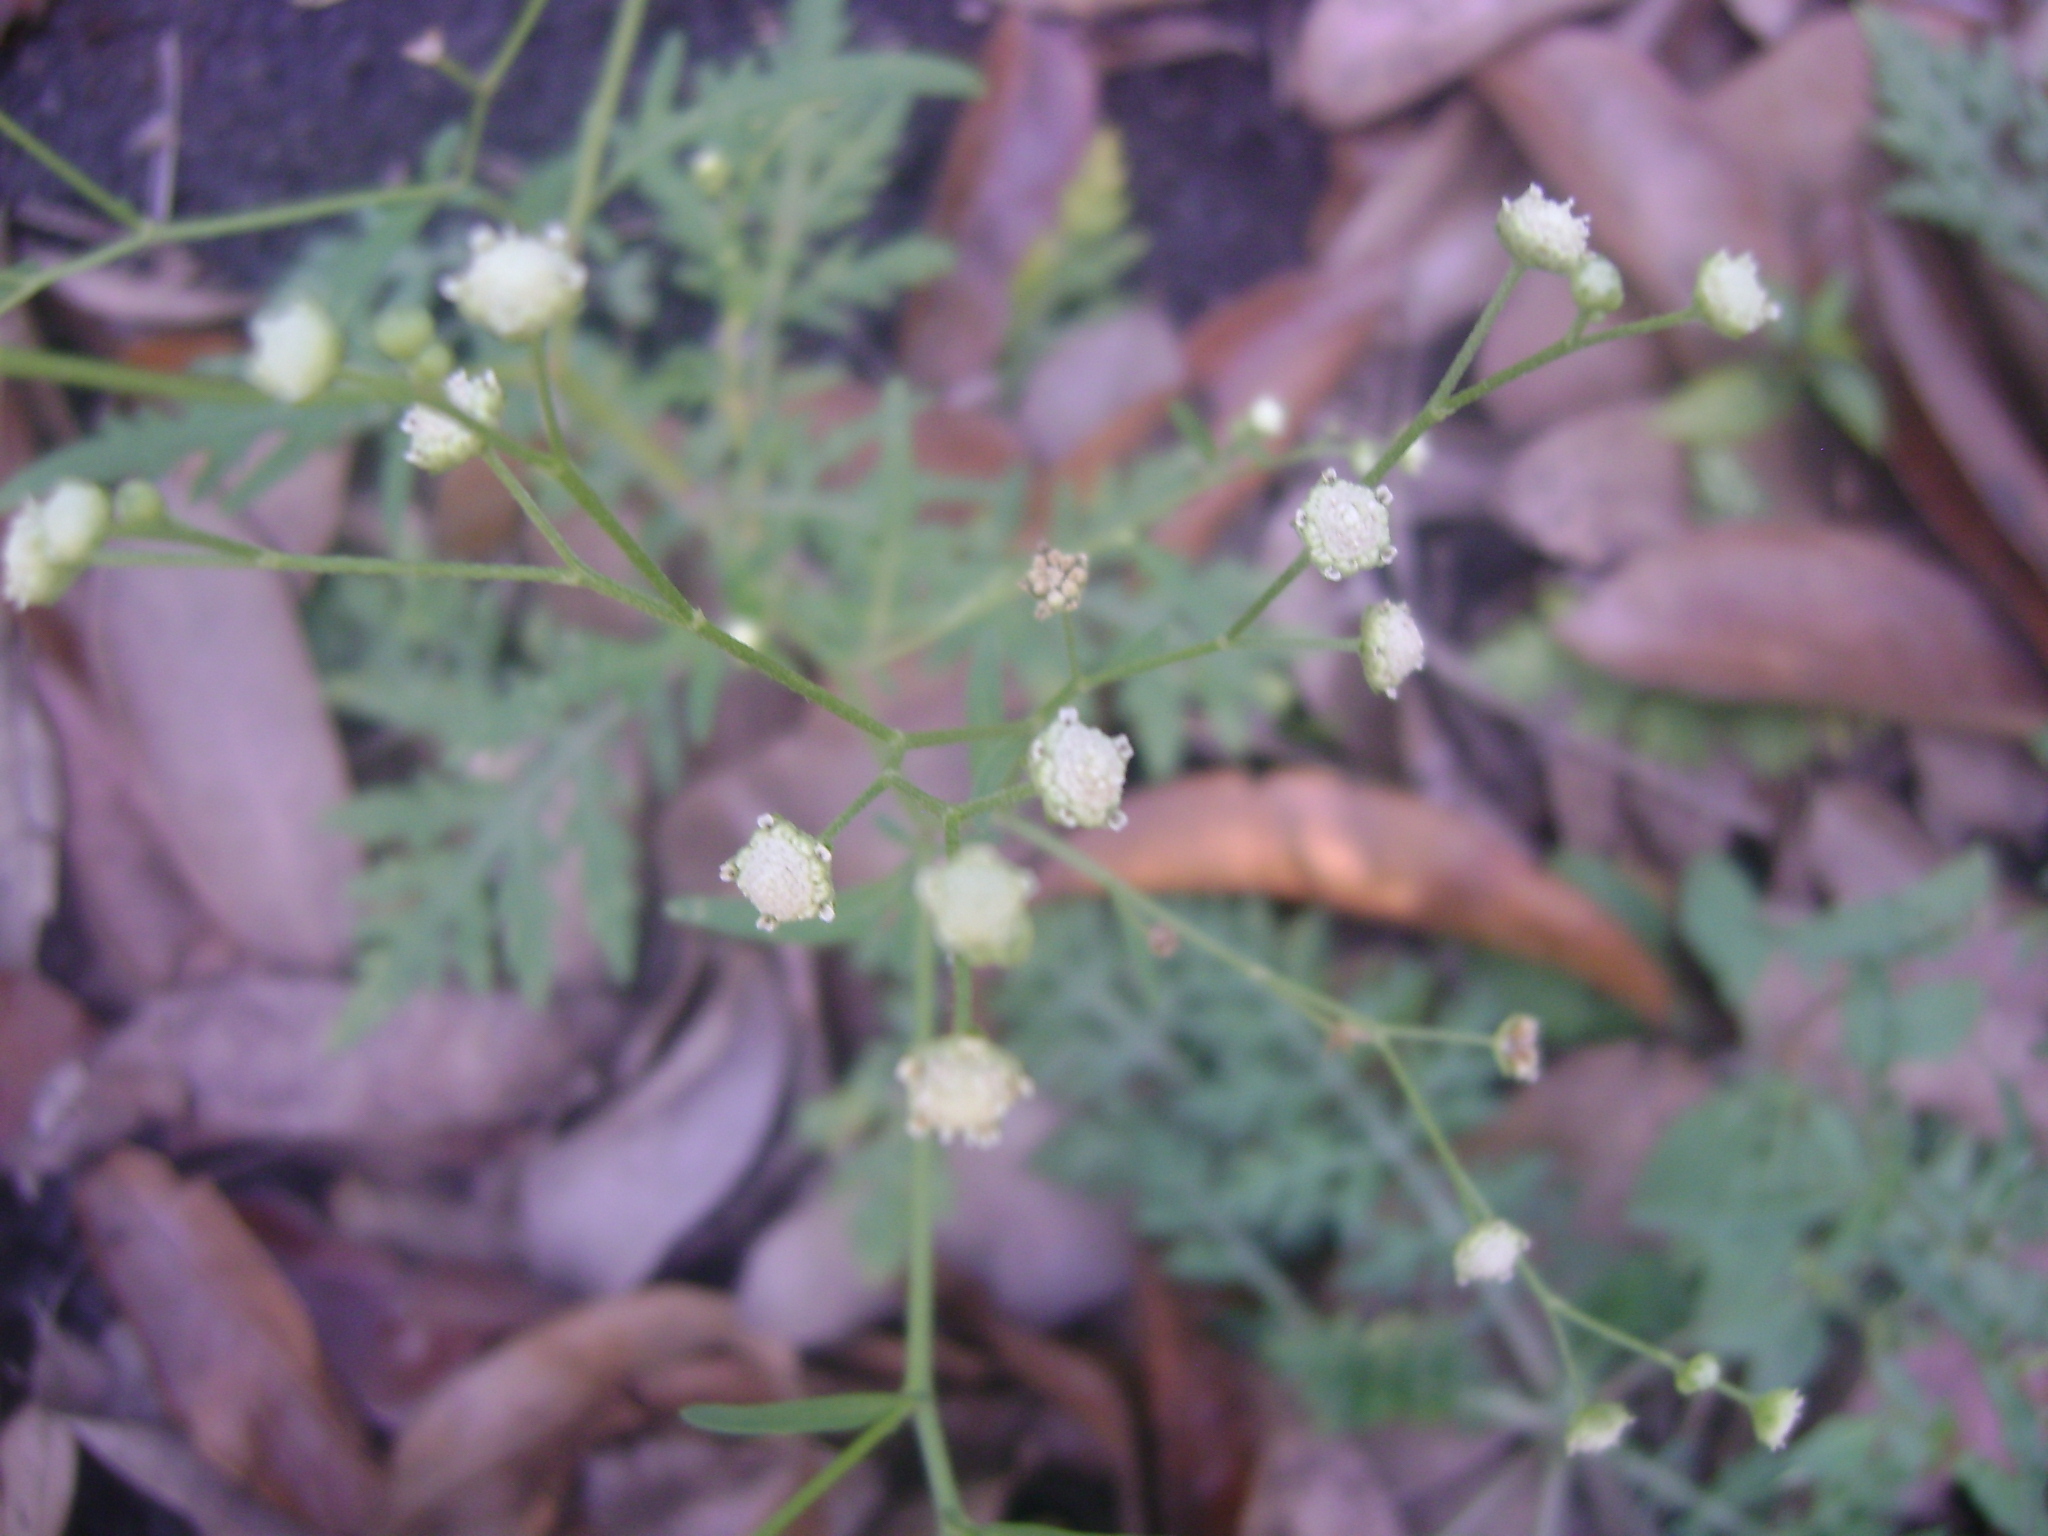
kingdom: Plantae
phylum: Tracheophyta
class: Magnoliopsida
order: Asterales
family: Asteraceae
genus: Parthenium
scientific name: Parthenium hysterophorus
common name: Santa maria feverfew
